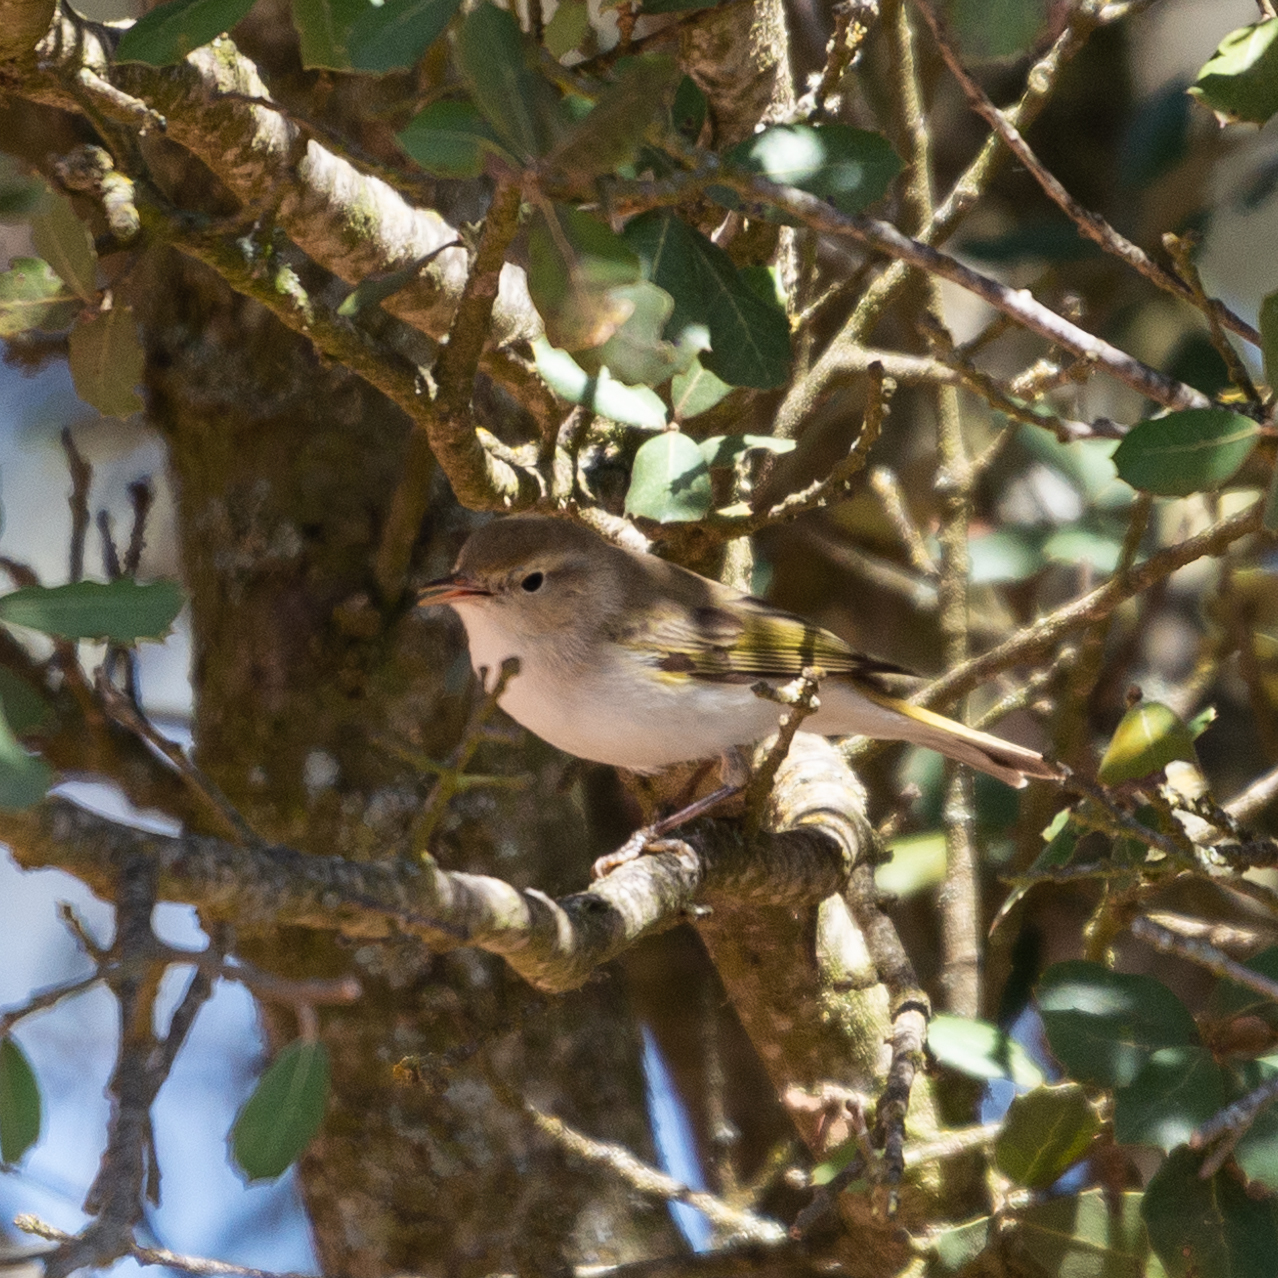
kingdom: Animalia
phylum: Chordata
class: Aves
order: Passeriformes
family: Phylloscopidae
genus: Phylloscopus
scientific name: Phylloscopus bonelli
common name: Western bonelli's warbler
